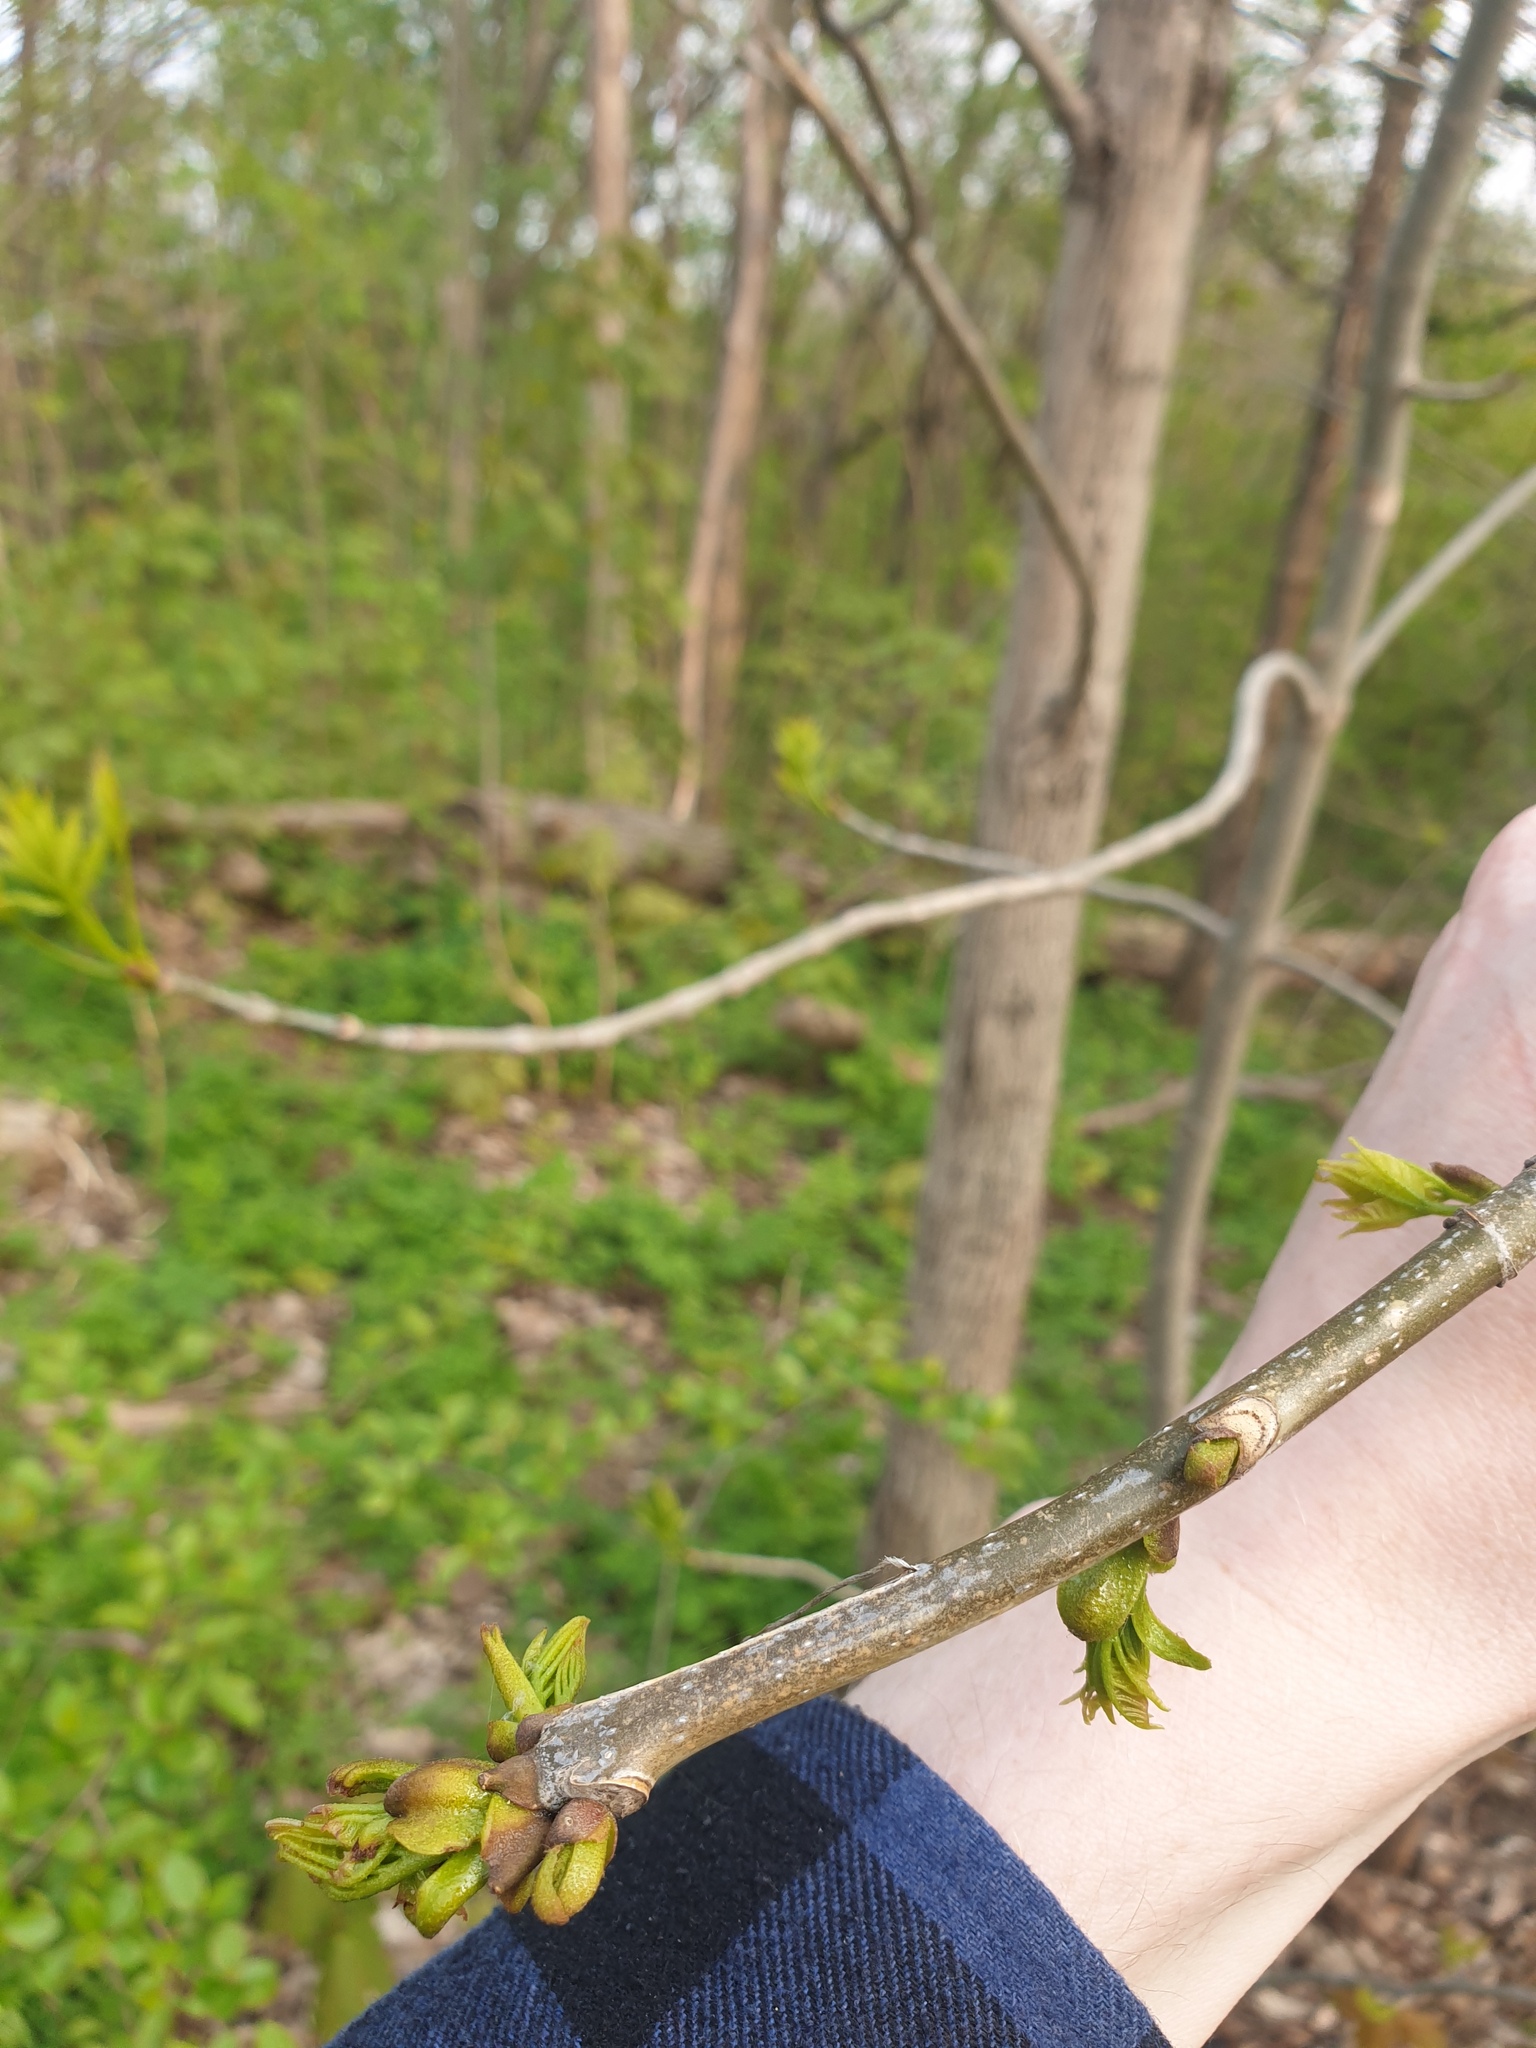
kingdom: Plantae
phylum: Tracheophyta
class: Magnoliopsida
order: Lamiales
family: Oleaceae
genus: Fraxinus
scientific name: Fraxinus americana
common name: White ash
